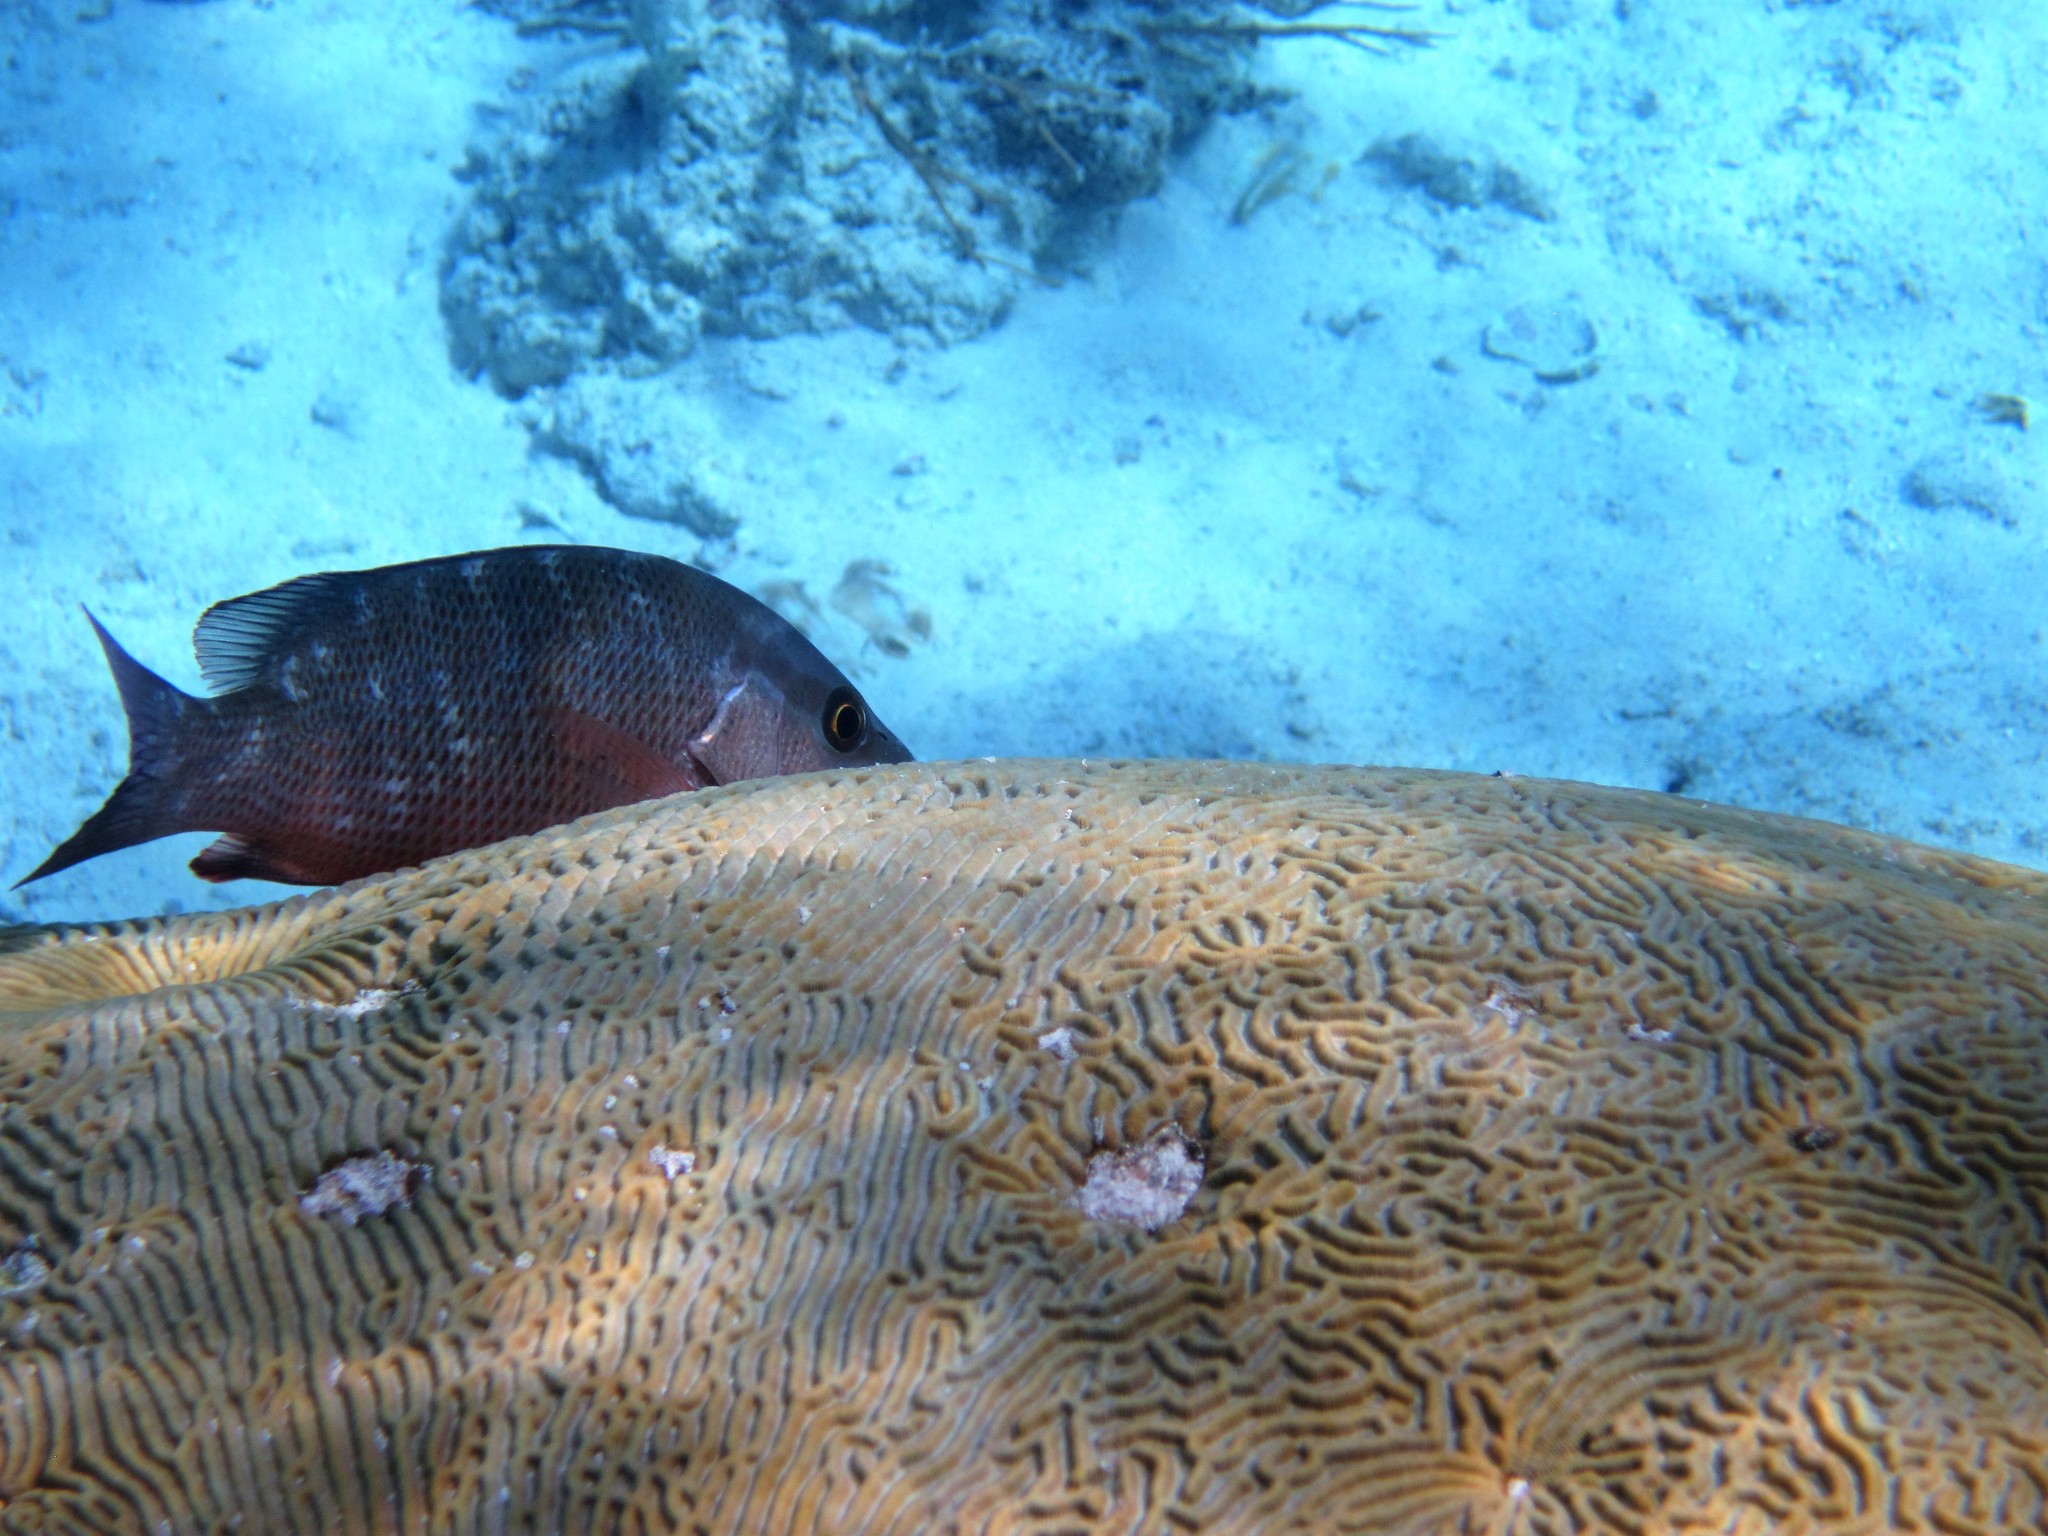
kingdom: Animalia
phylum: Chordata
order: Perciformes
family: Lutjanidae
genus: Lutjanus
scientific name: Lutjanus griseus
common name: Gray snapper
